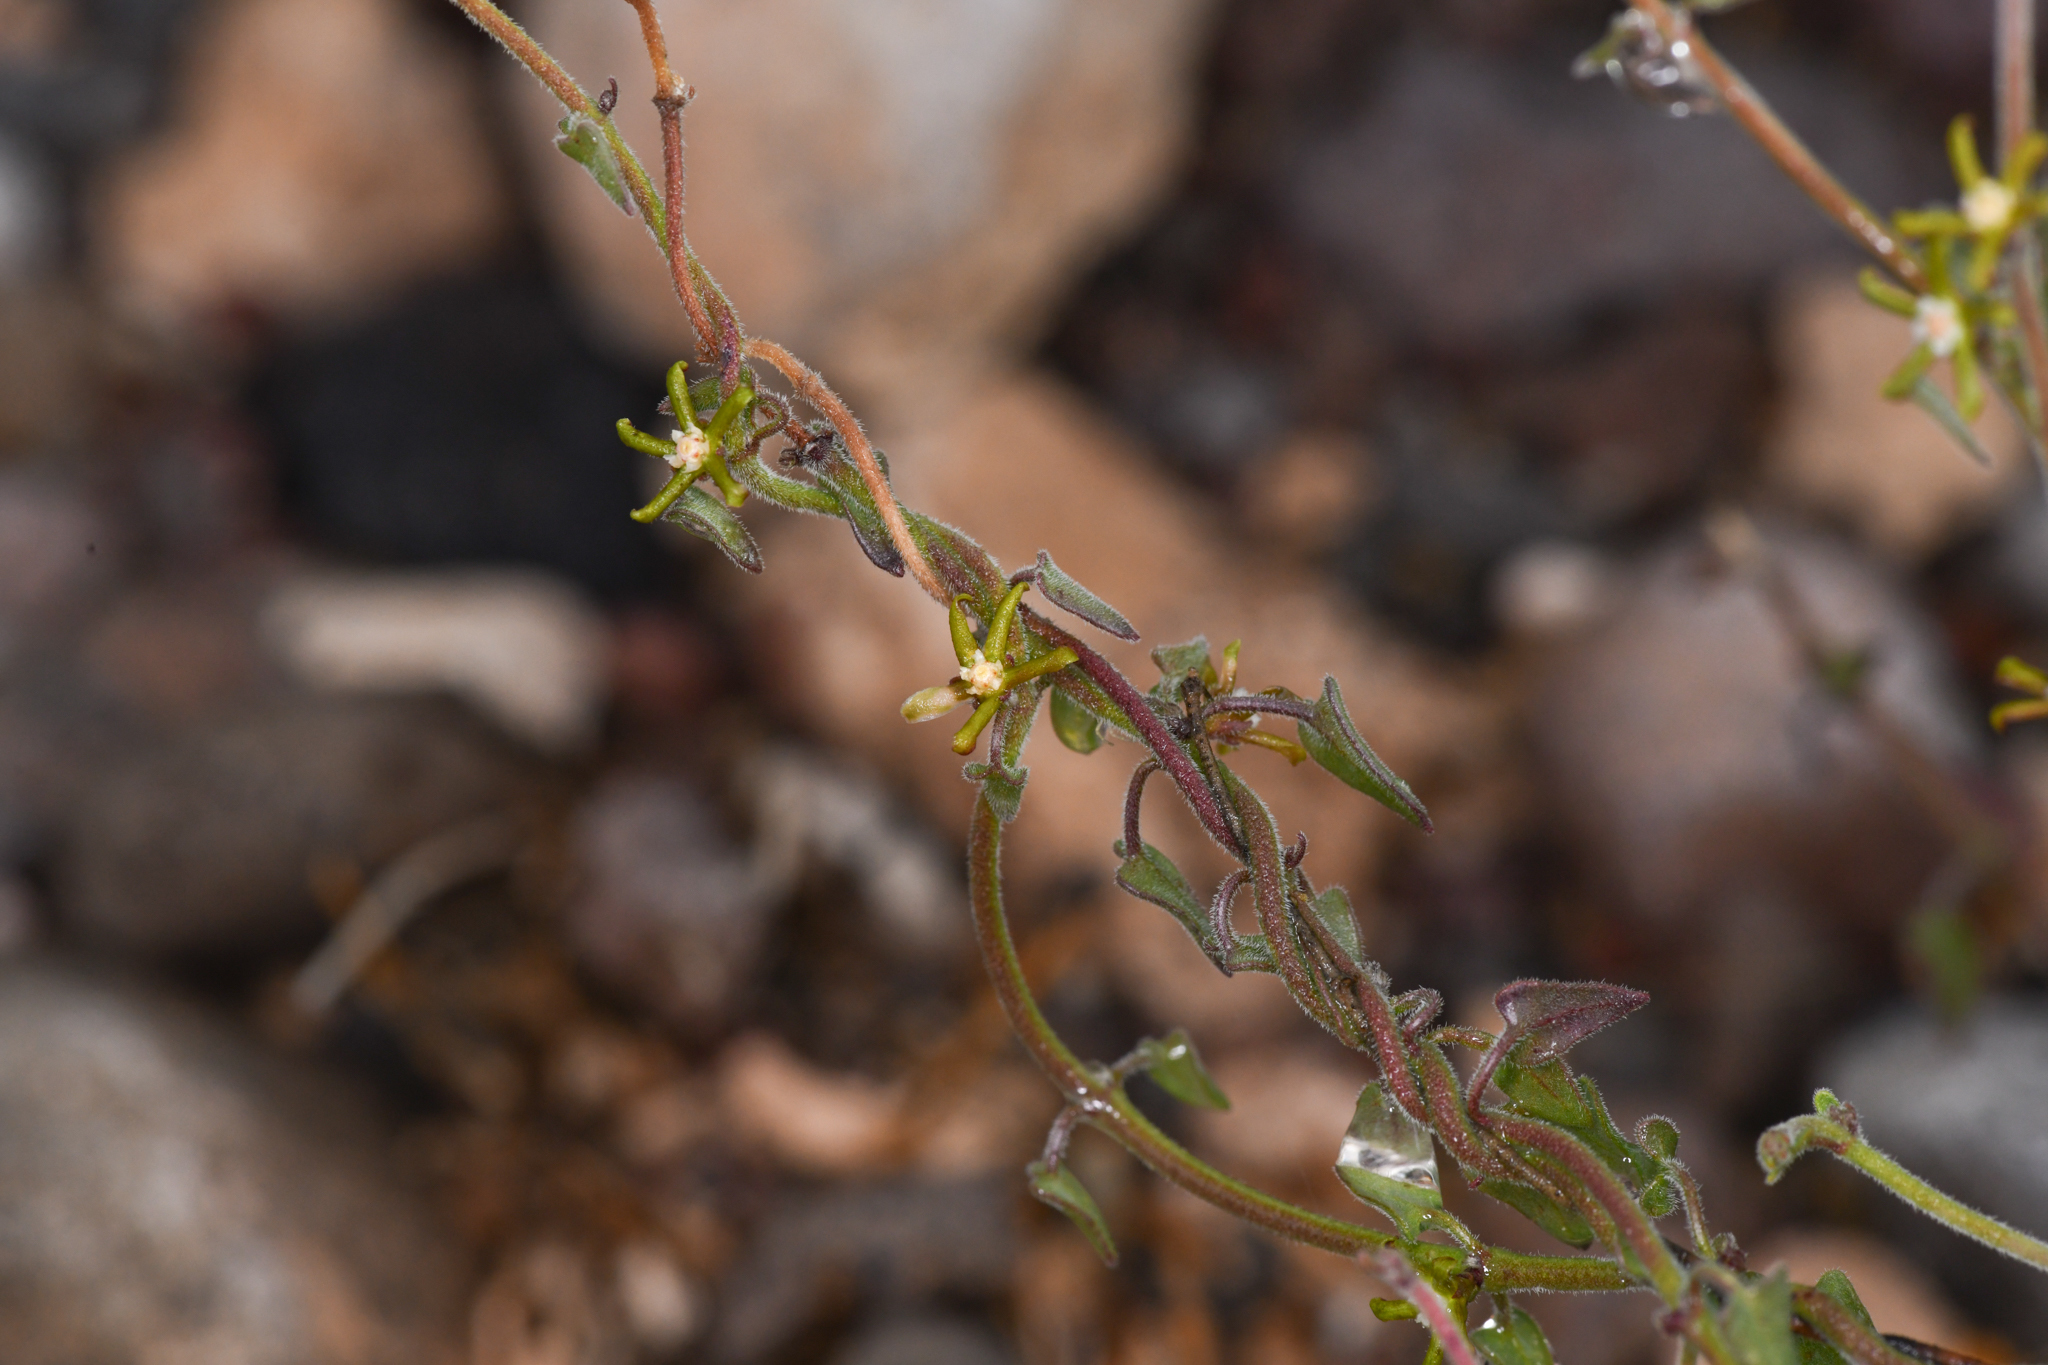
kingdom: Plantae
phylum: Tracheophyta
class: Magnoliopsida
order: Gentianales
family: Apocynaceae
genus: Lachnostoma
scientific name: Lachnostoma hastulatum
